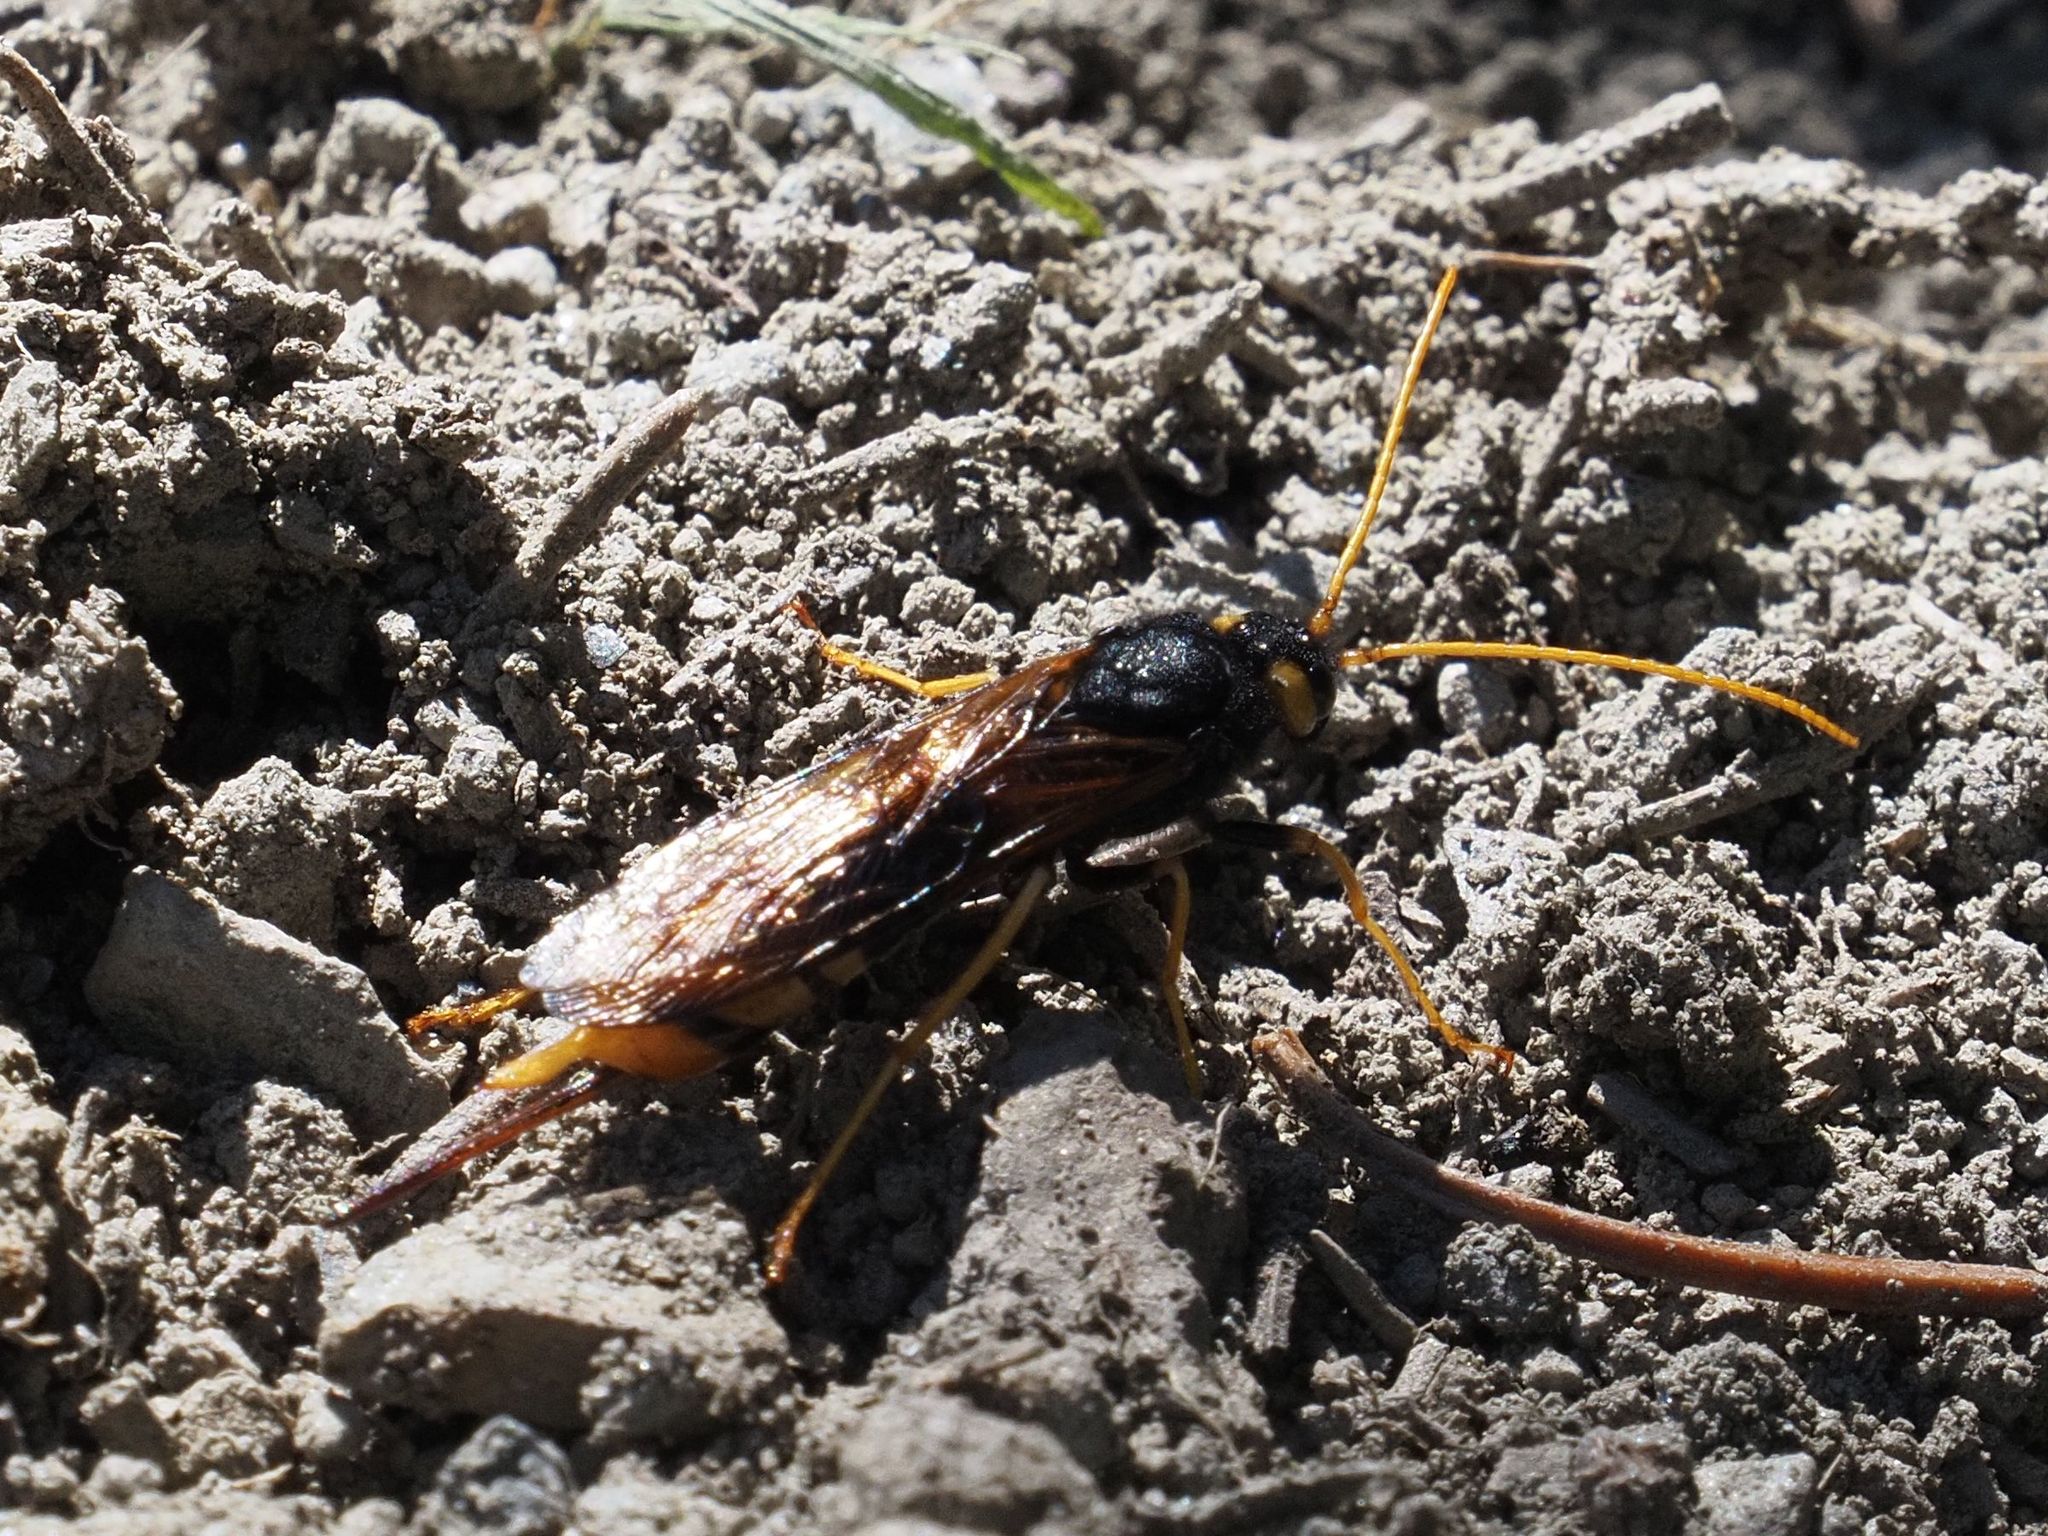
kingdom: Animalia
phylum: Arthropoda
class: Insecta
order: Hymenoptera
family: Siricidae
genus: Urocerus
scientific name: Urocerus gigas
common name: Giant woodwasp
